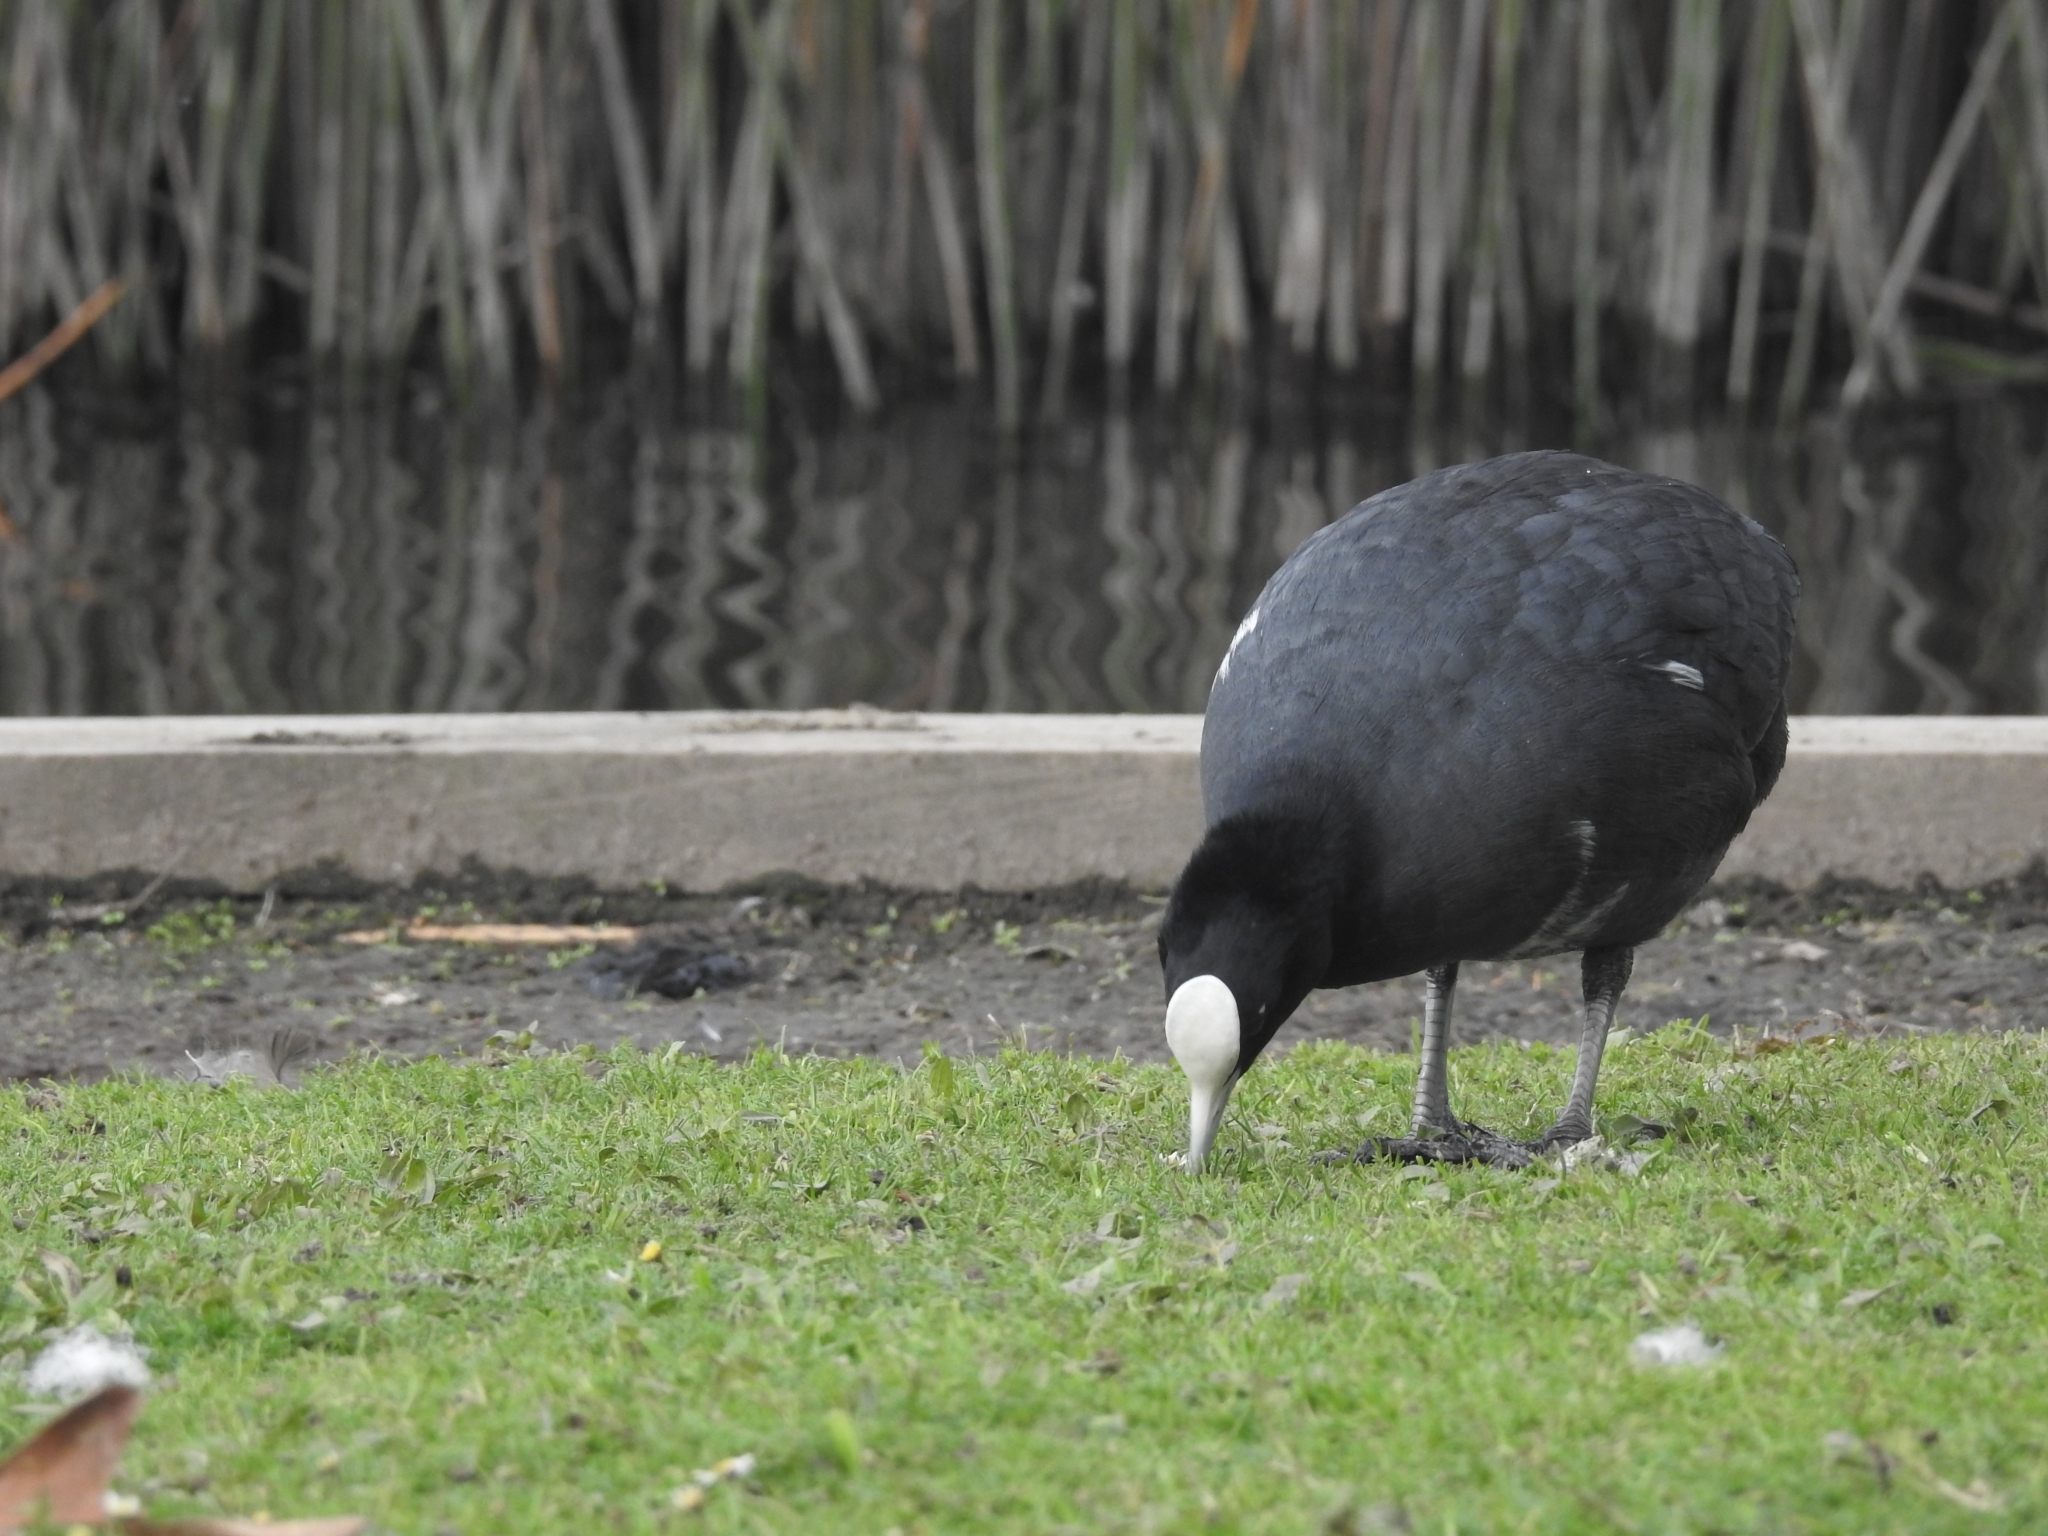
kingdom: Animalia
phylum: Chordata
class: Aves
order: Gruiformes
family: Rallidae
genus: Fulica
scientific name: Fulica atra
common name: Eurasian coot
